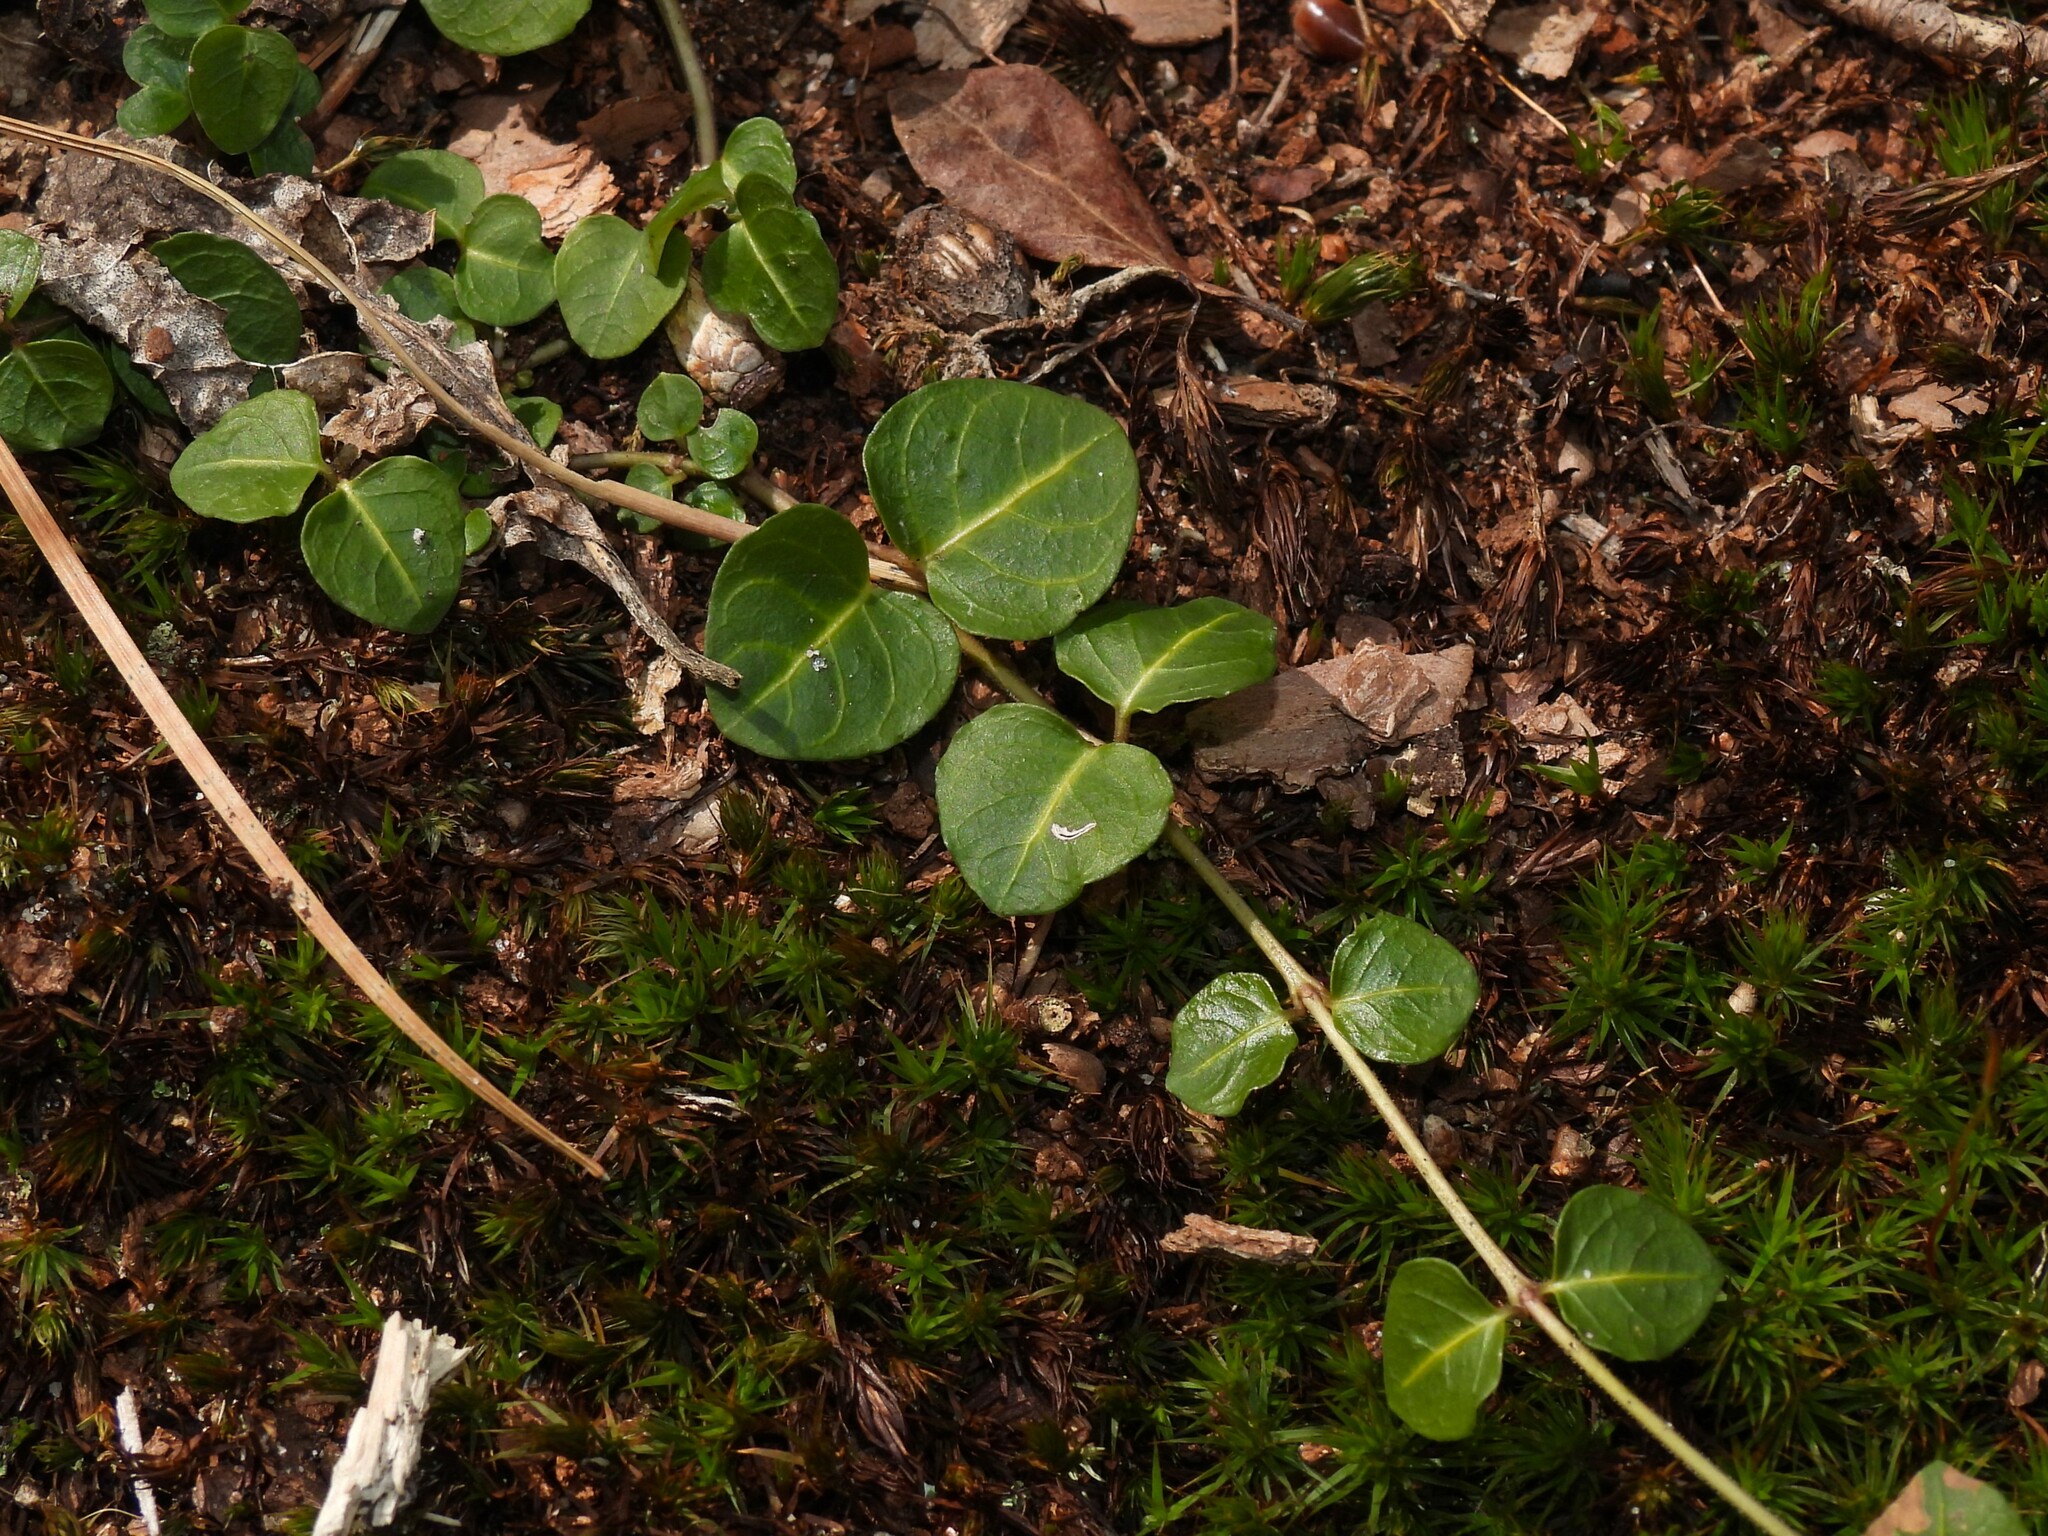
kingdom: Plantae
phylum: Tracheophyta
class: Magnoliopsida
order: Gentianales
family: Rubiaceae
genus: Mitchella
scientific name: Mitchella repens
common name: Partridge-berry
